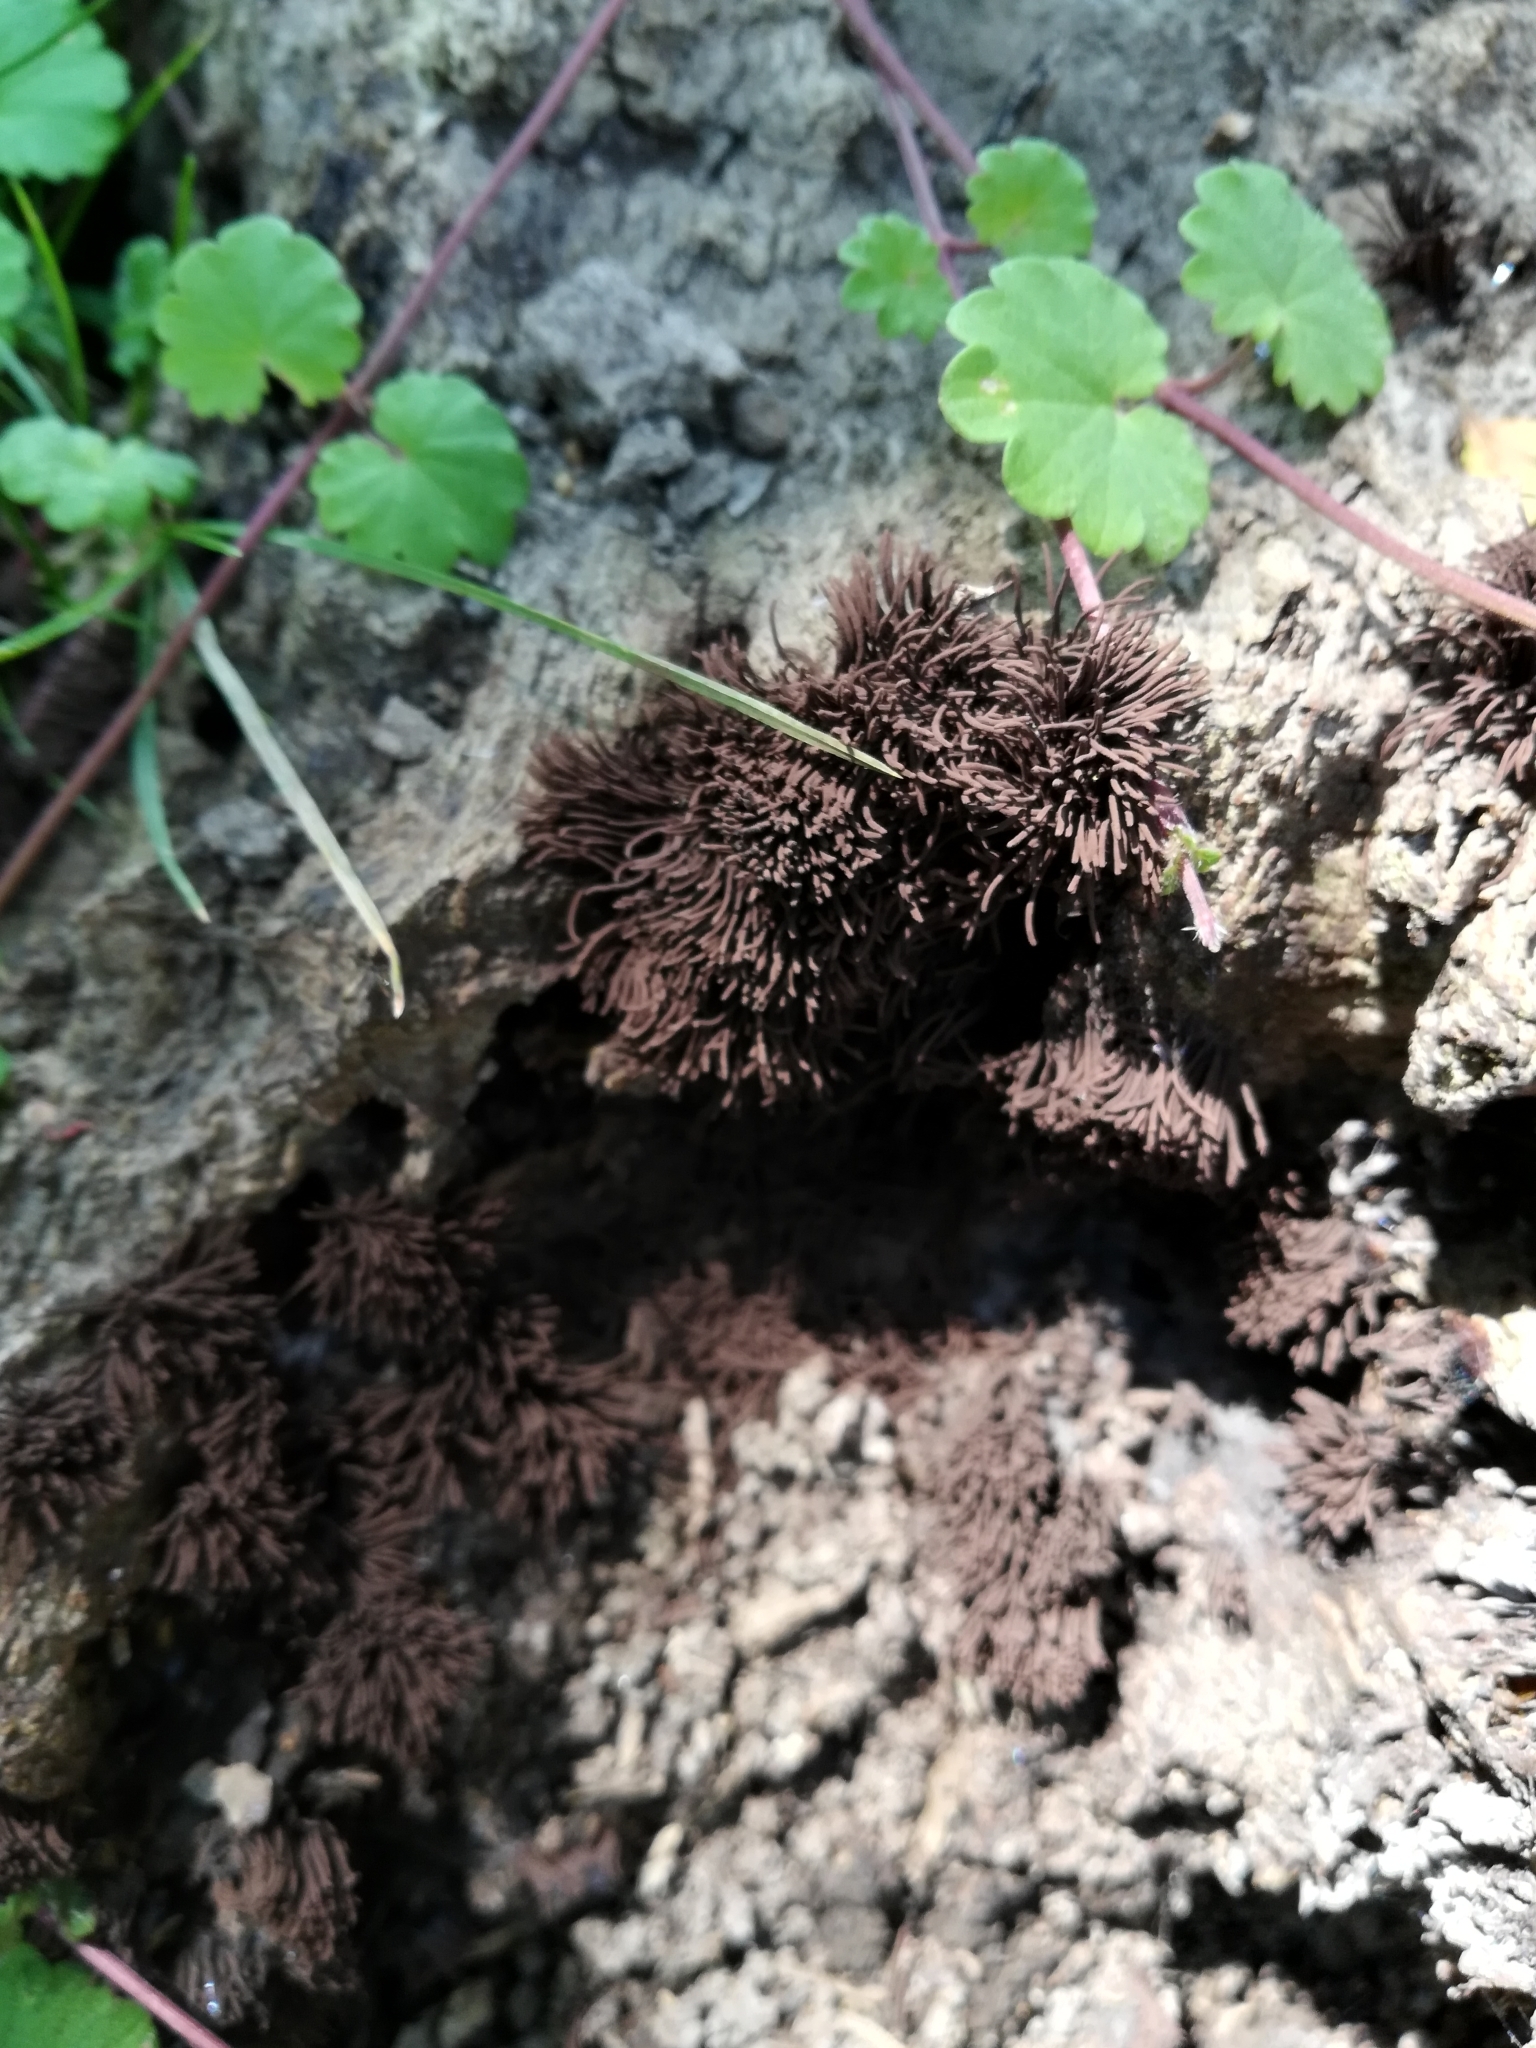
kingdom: Protozoa
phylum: Mycetozoa
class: Myxomycetes
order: Stemonitidales
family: Stemonitidaceae
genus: Stemonitis
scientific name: Stemonitis splendens
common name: Chocolate tube slime
